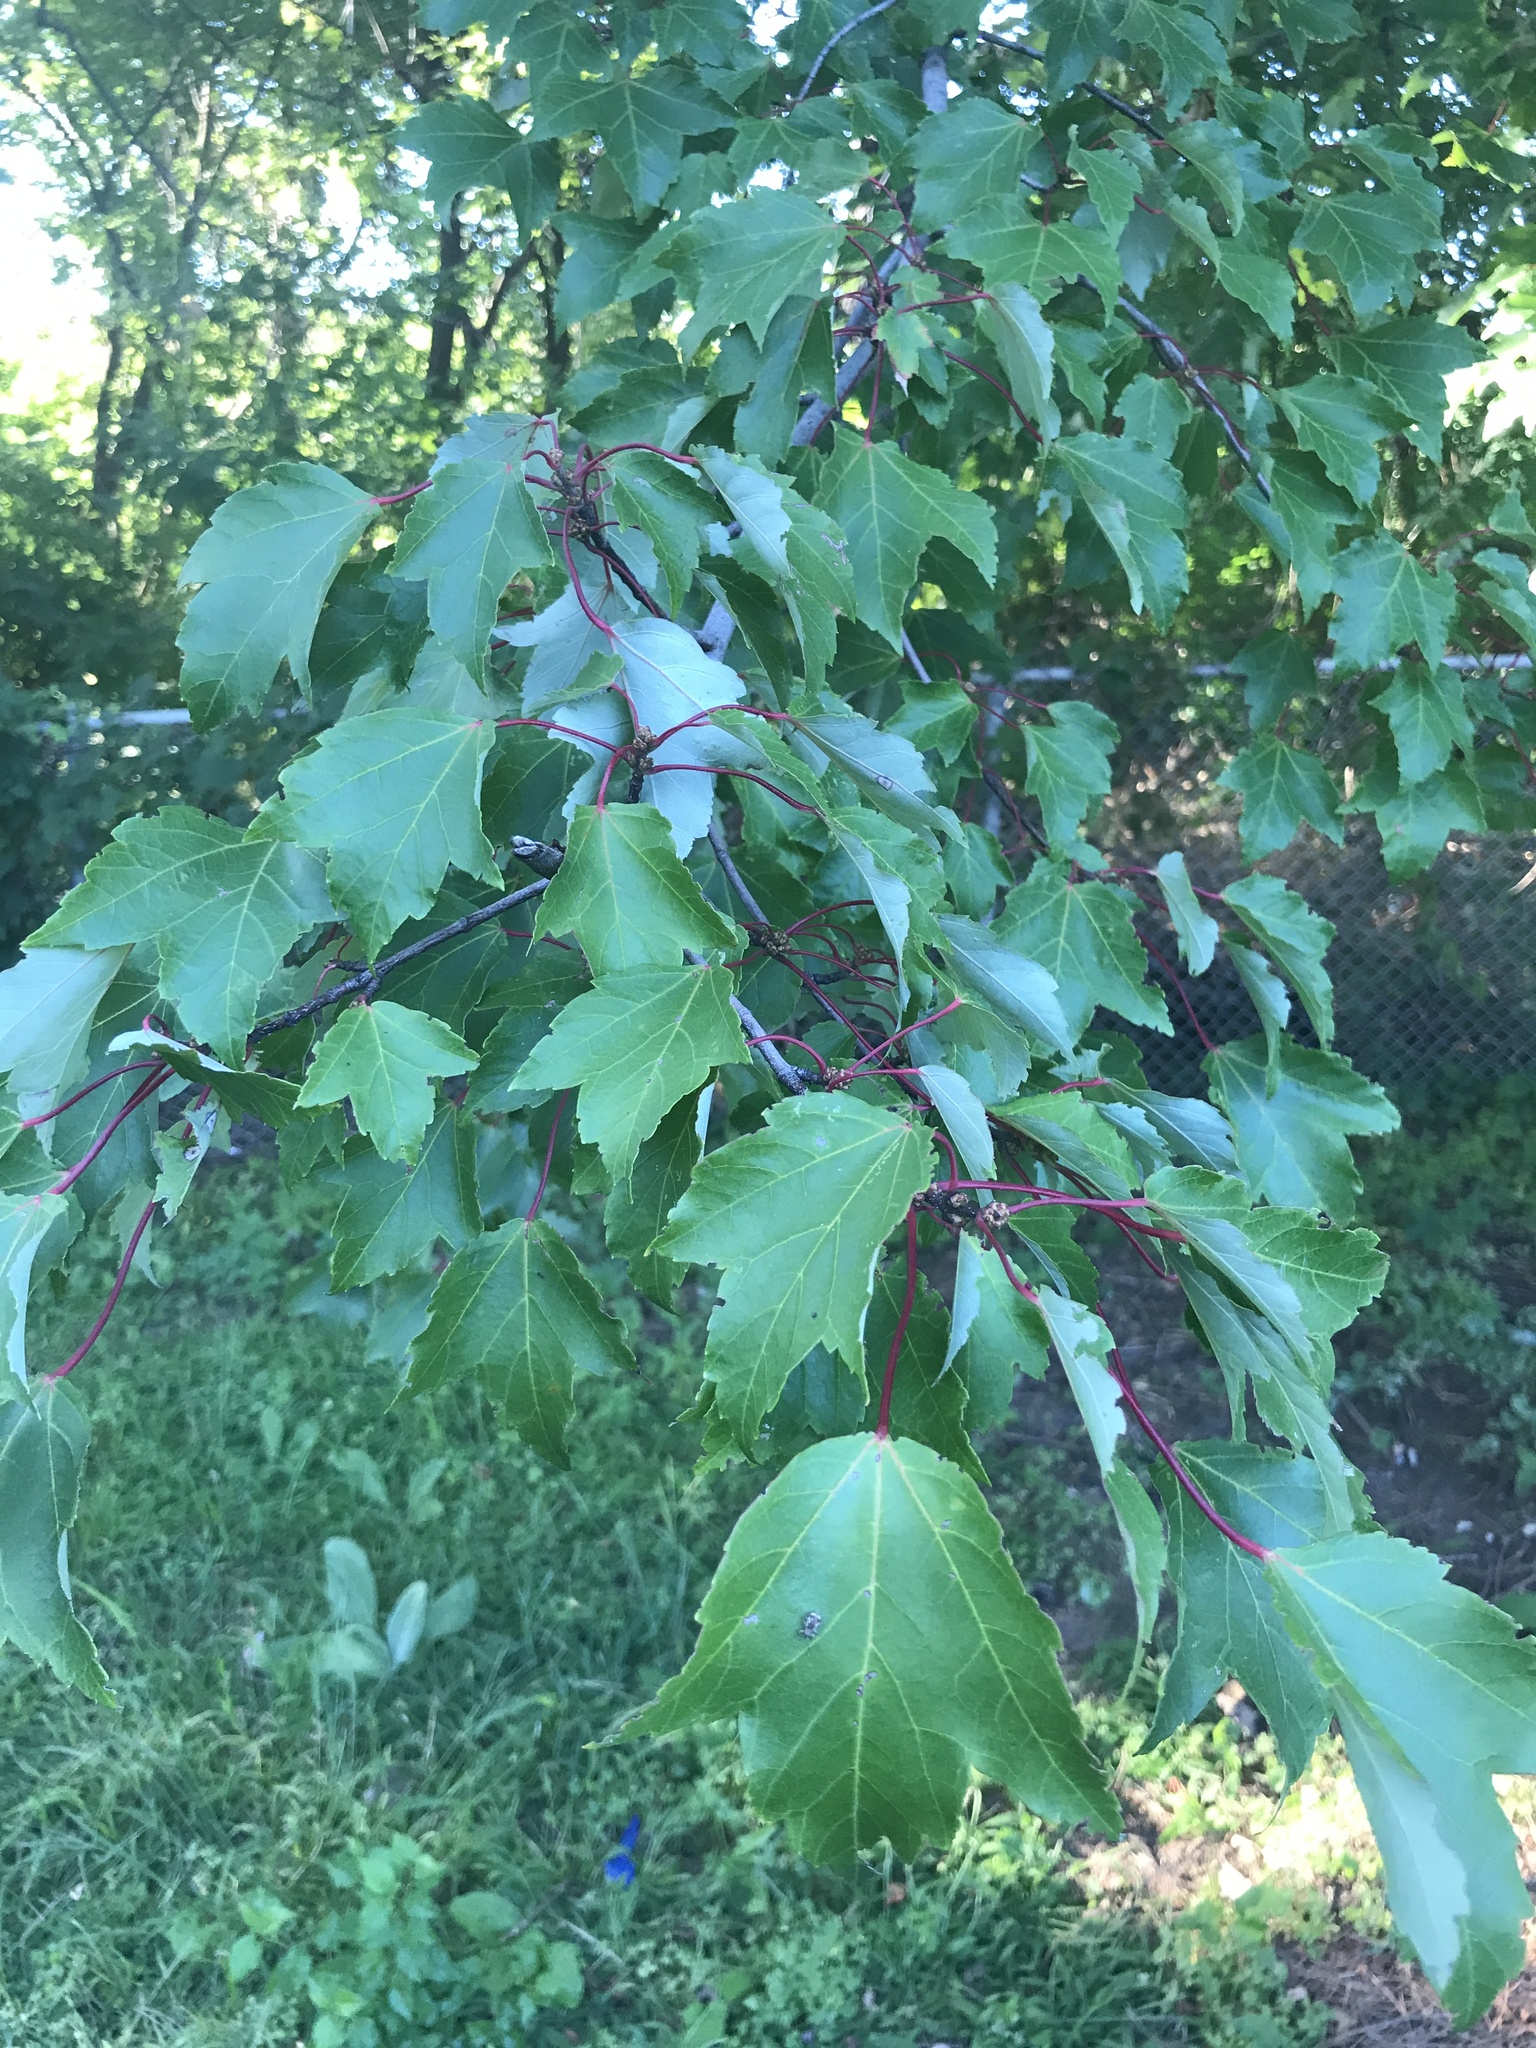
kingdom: Plantae
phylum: Tracheophyta
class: Magnoliopsida
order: Sapindales
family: Sapindaceae
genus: Acer
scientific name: Acer rubrum
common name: Red maple
